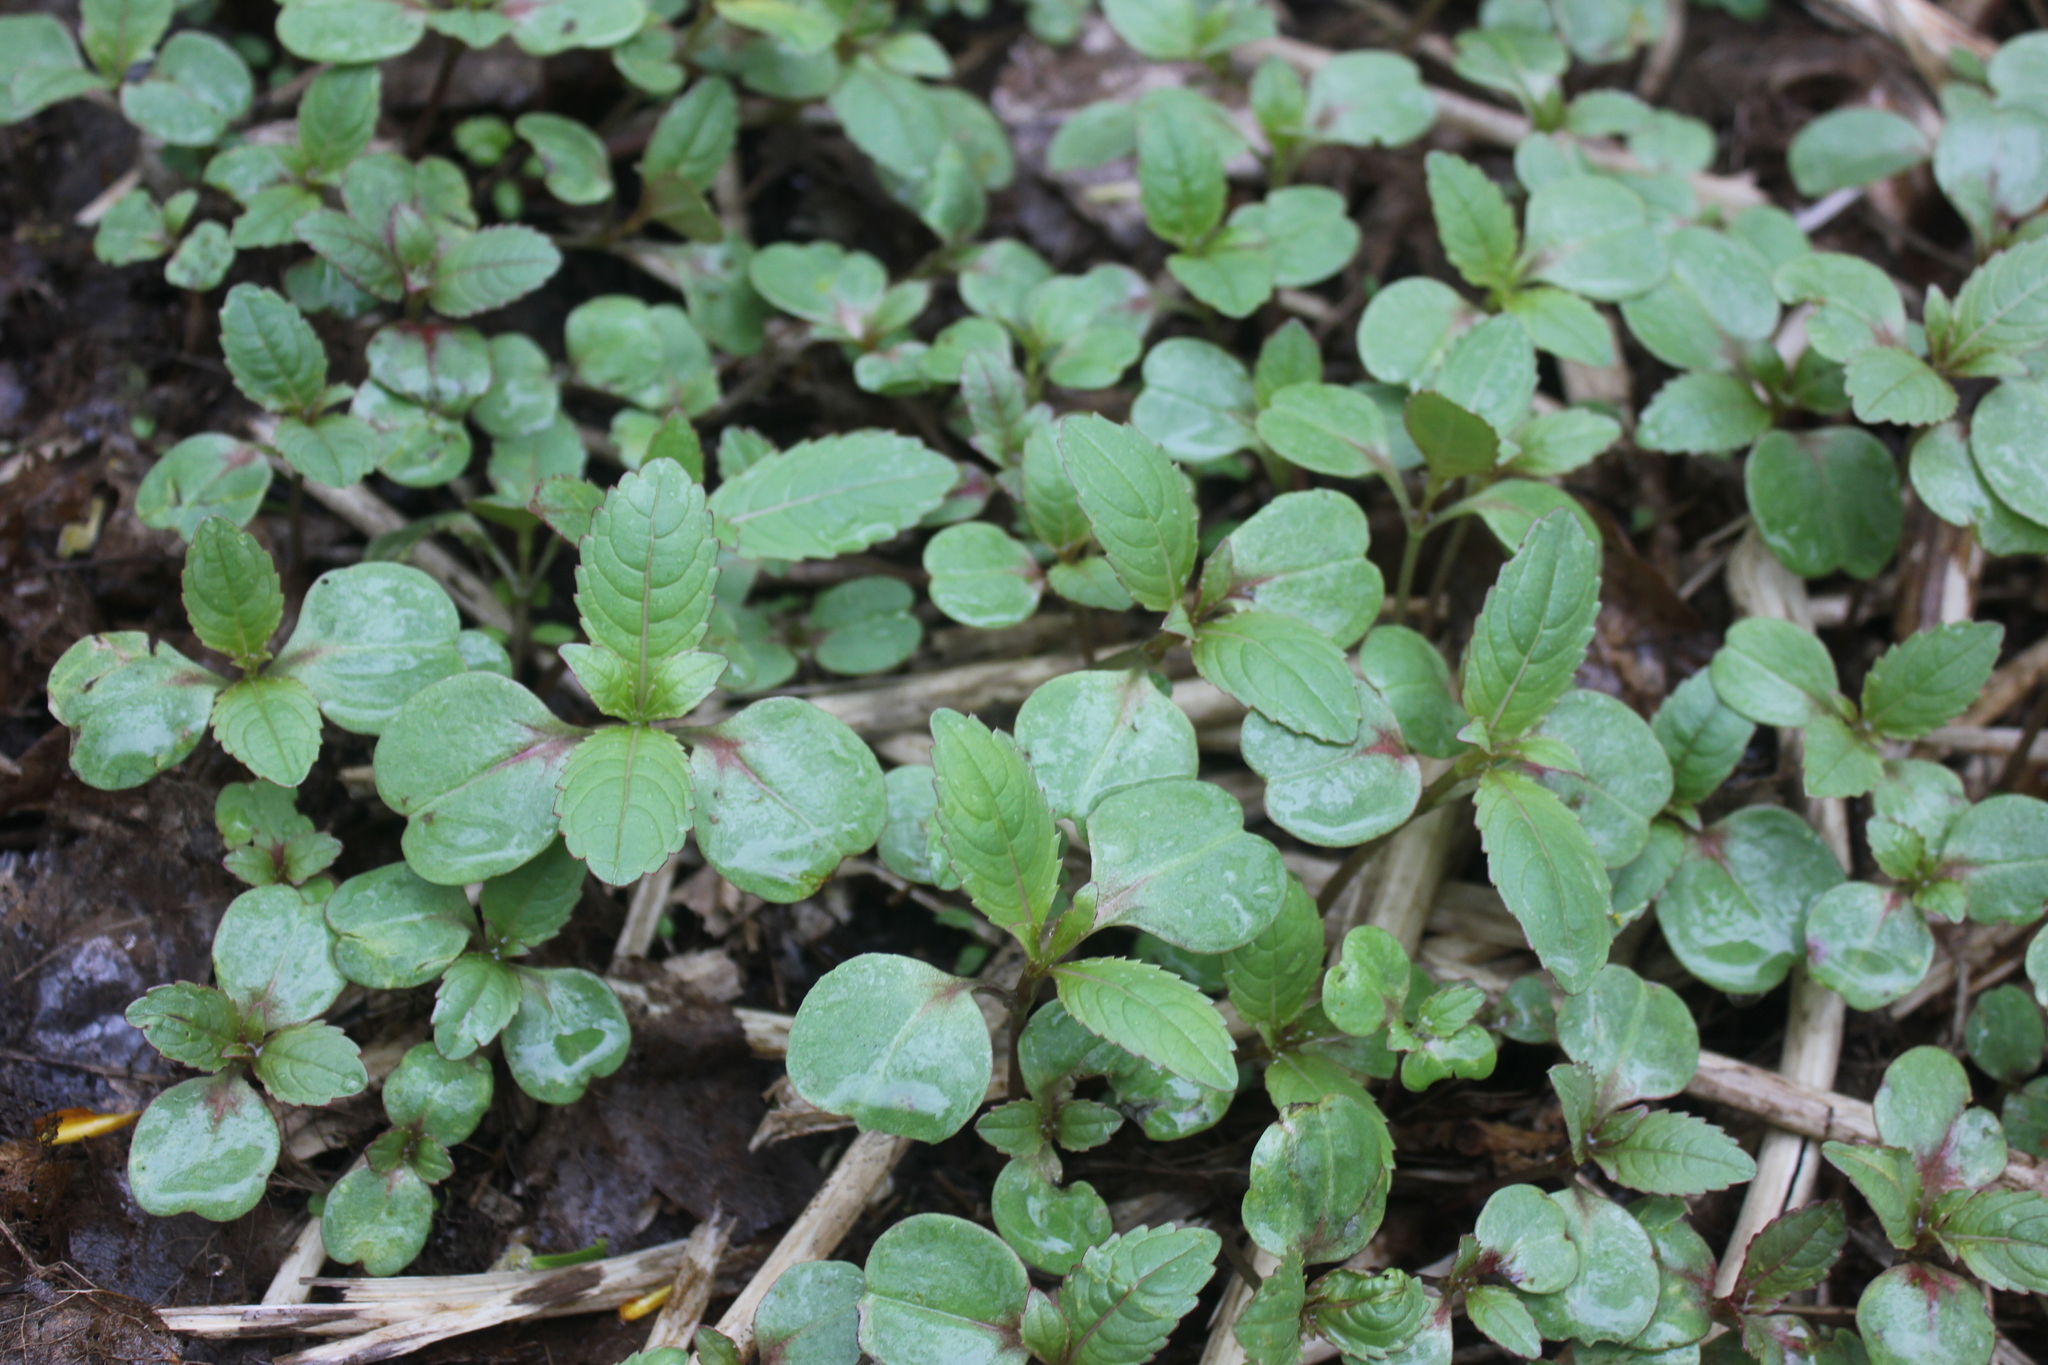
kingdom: Plantae
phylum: Tracheophyta
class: Magnoliopsida
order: Ericales
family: Balsaminaceae
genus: Impatiens
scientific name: Impatiens glandulifera
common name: Himalayan balsam
